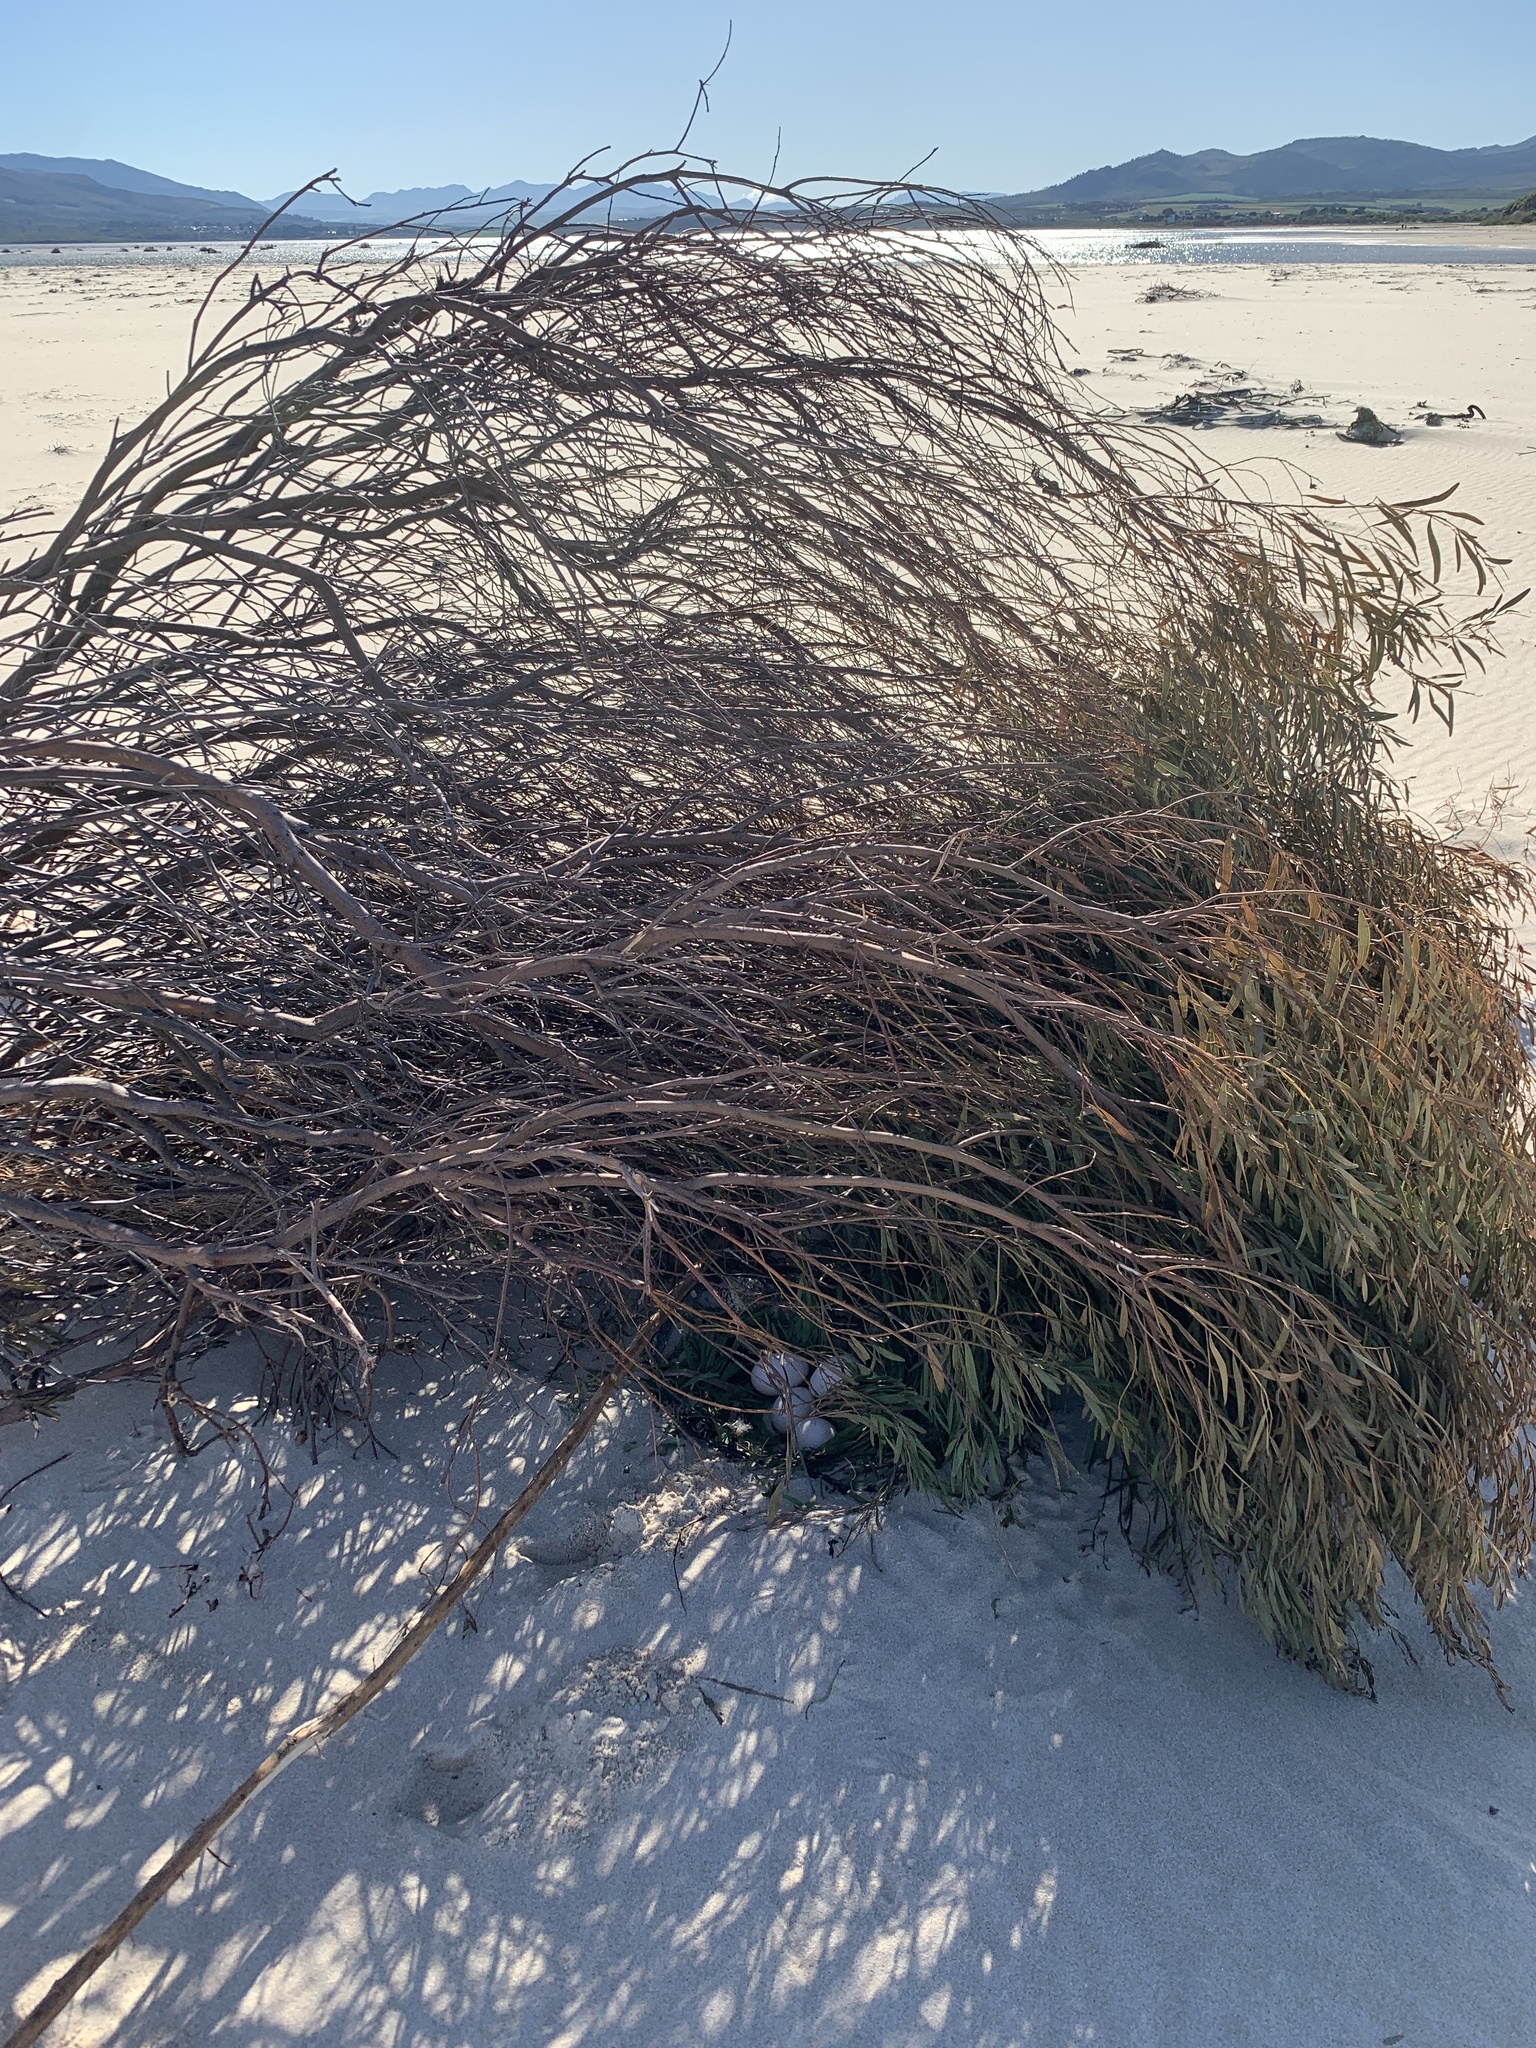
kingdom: Animalia
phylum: Chordata
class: Aves
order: Anseriformes
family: Anatidae
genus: Alopochen
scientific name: Alopochen aegyptiaca
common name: Egyptian goose
